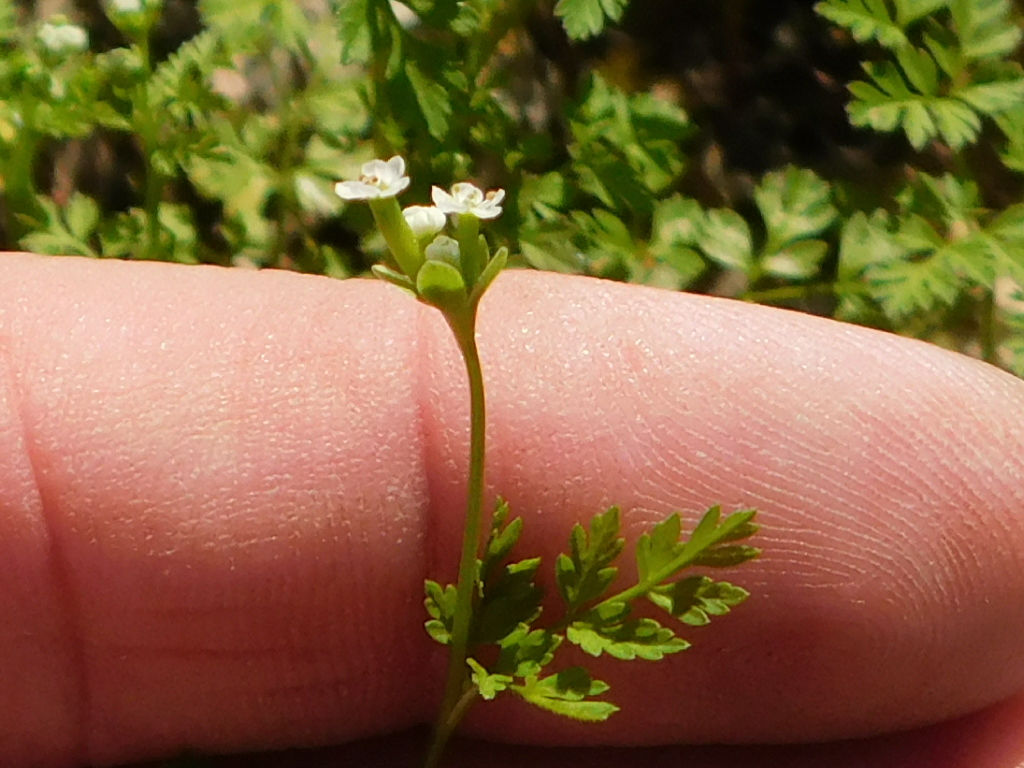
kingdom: Plantae
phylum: Tracheophyta
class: Magnoliopsida
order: Apiales
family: Apiaceae
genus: Chaerophyllum
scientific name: Chaerophyllum tainturieri
